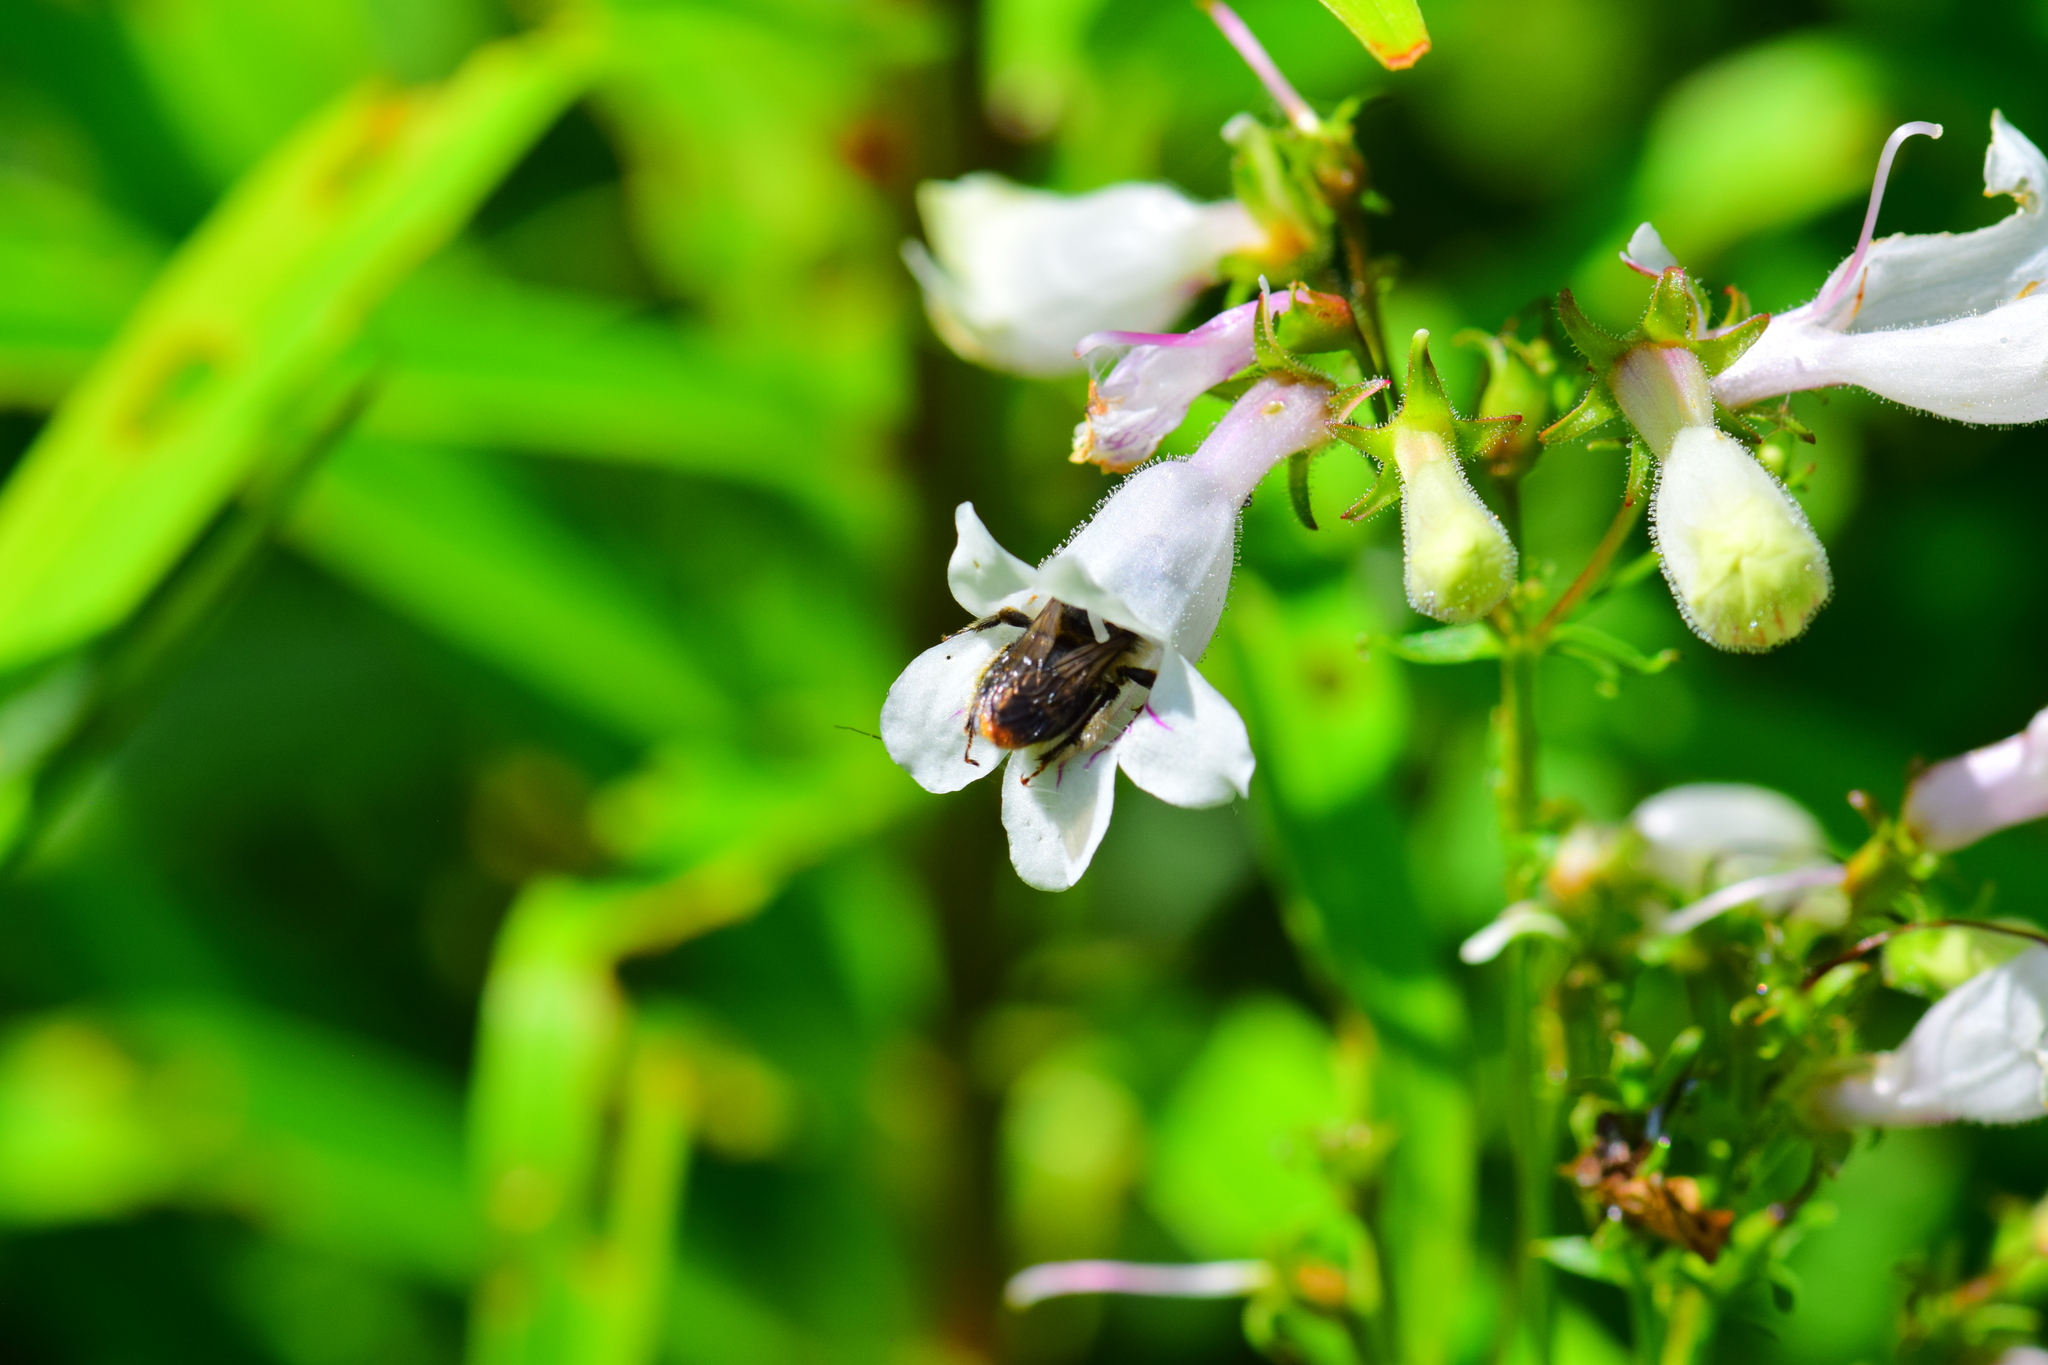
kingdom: Animalia
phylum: Arthropoda
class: Insecta
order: Hymenoptera
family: Apidae
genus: Anthophora
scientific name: Anthophora terminalis
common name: Orange-tipped wood-digger bee
